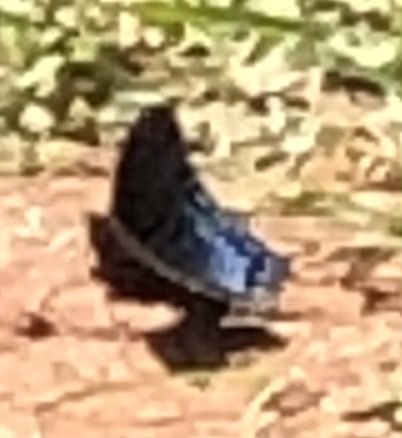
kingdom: Animalia
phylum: Arthropoda
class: Insecta
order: Lepidoptera
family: Nymphalidae
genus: Limenitis
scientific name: Limenitis arthemis
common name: Red-spotted admiral
